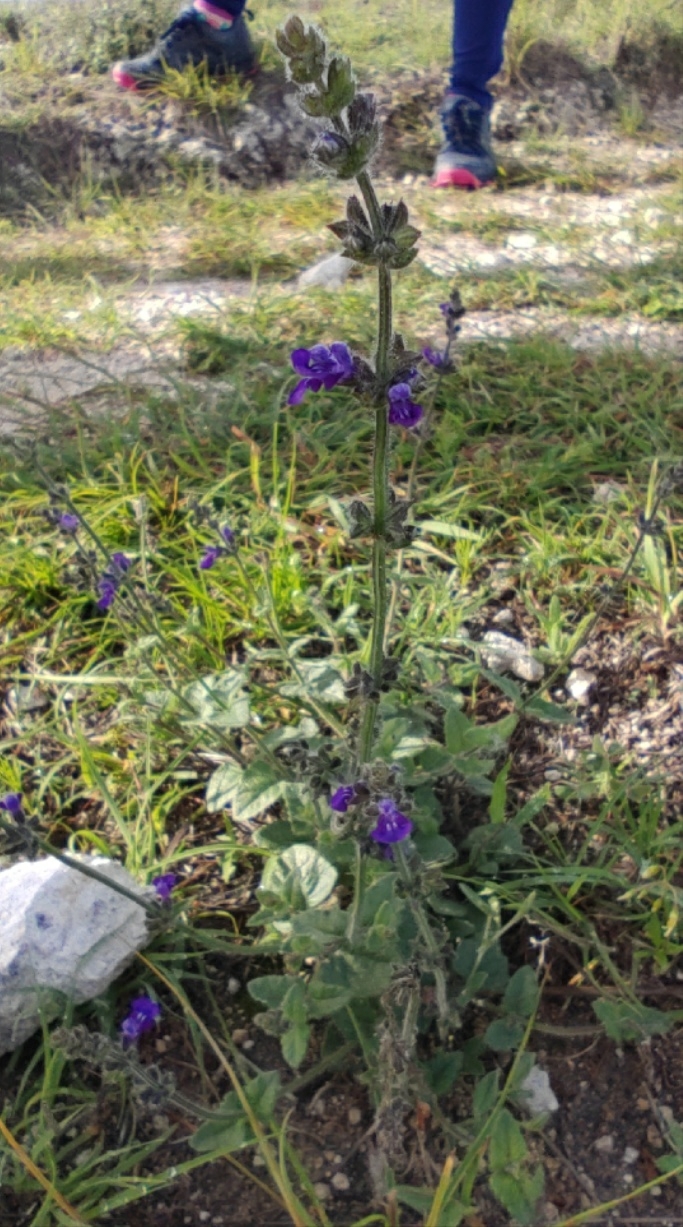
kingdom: Plantae
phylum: Tracheophyta
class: Magnoliopsida
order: Lamiales
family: Lamiaceae
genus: Salvia
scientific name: Salvia pusilla
